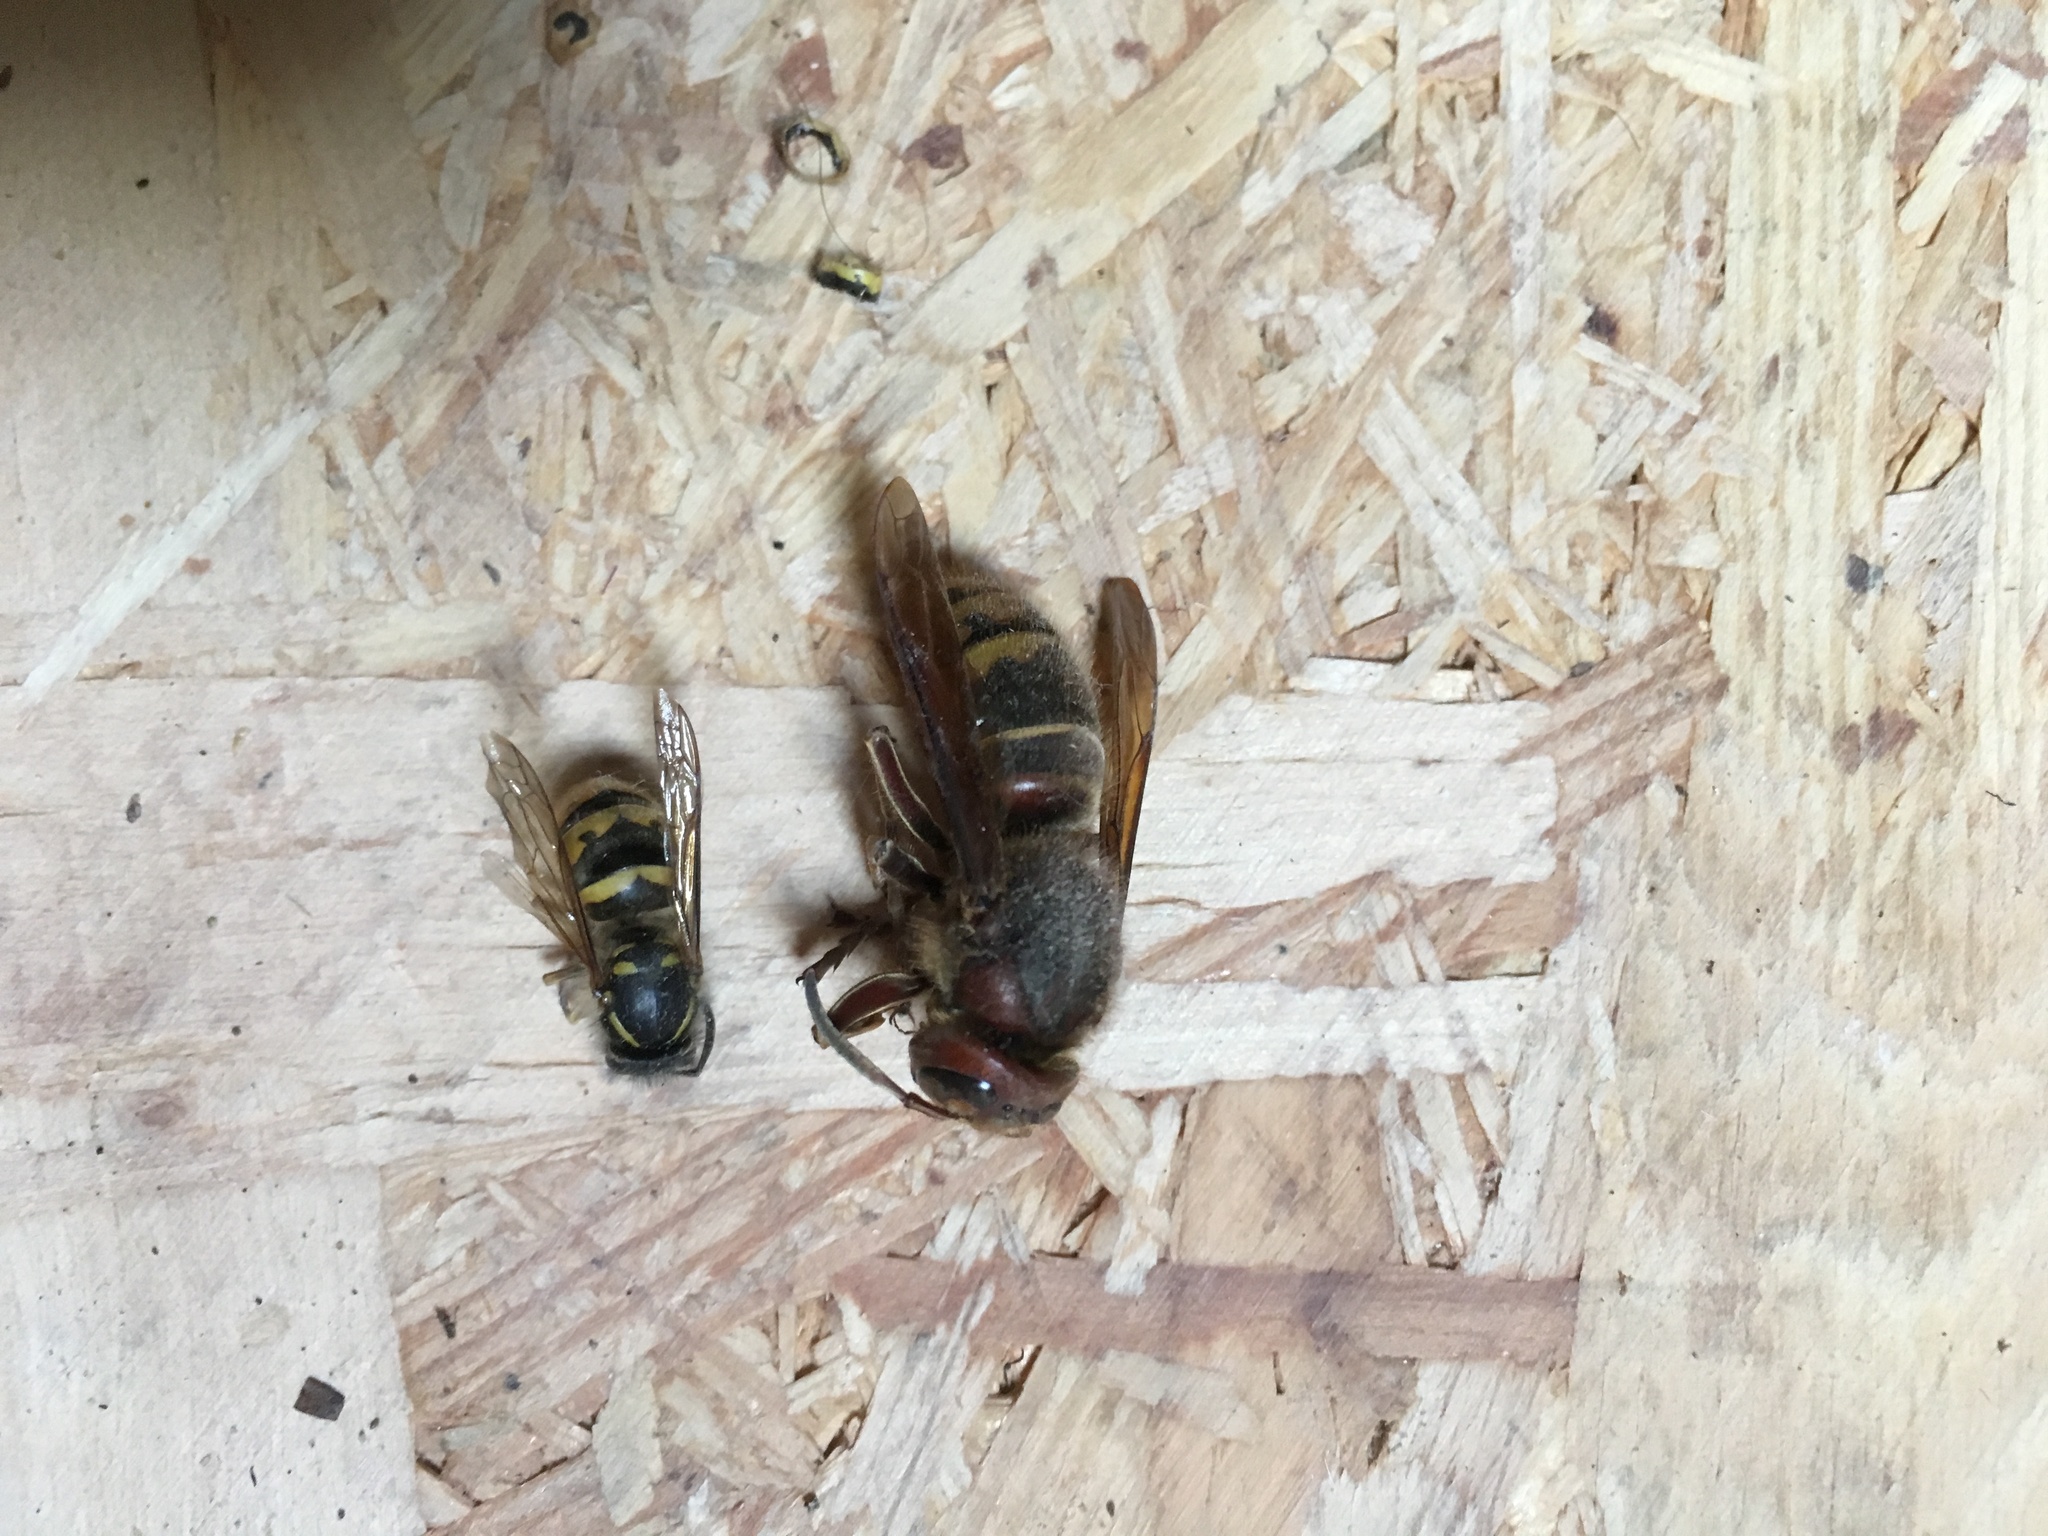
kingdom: Animalia
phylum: Arthropoda
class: Insecta
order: Hymenoptera
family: Vespidae
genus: Vespa
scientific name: Vespa crabro
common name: Hornet
